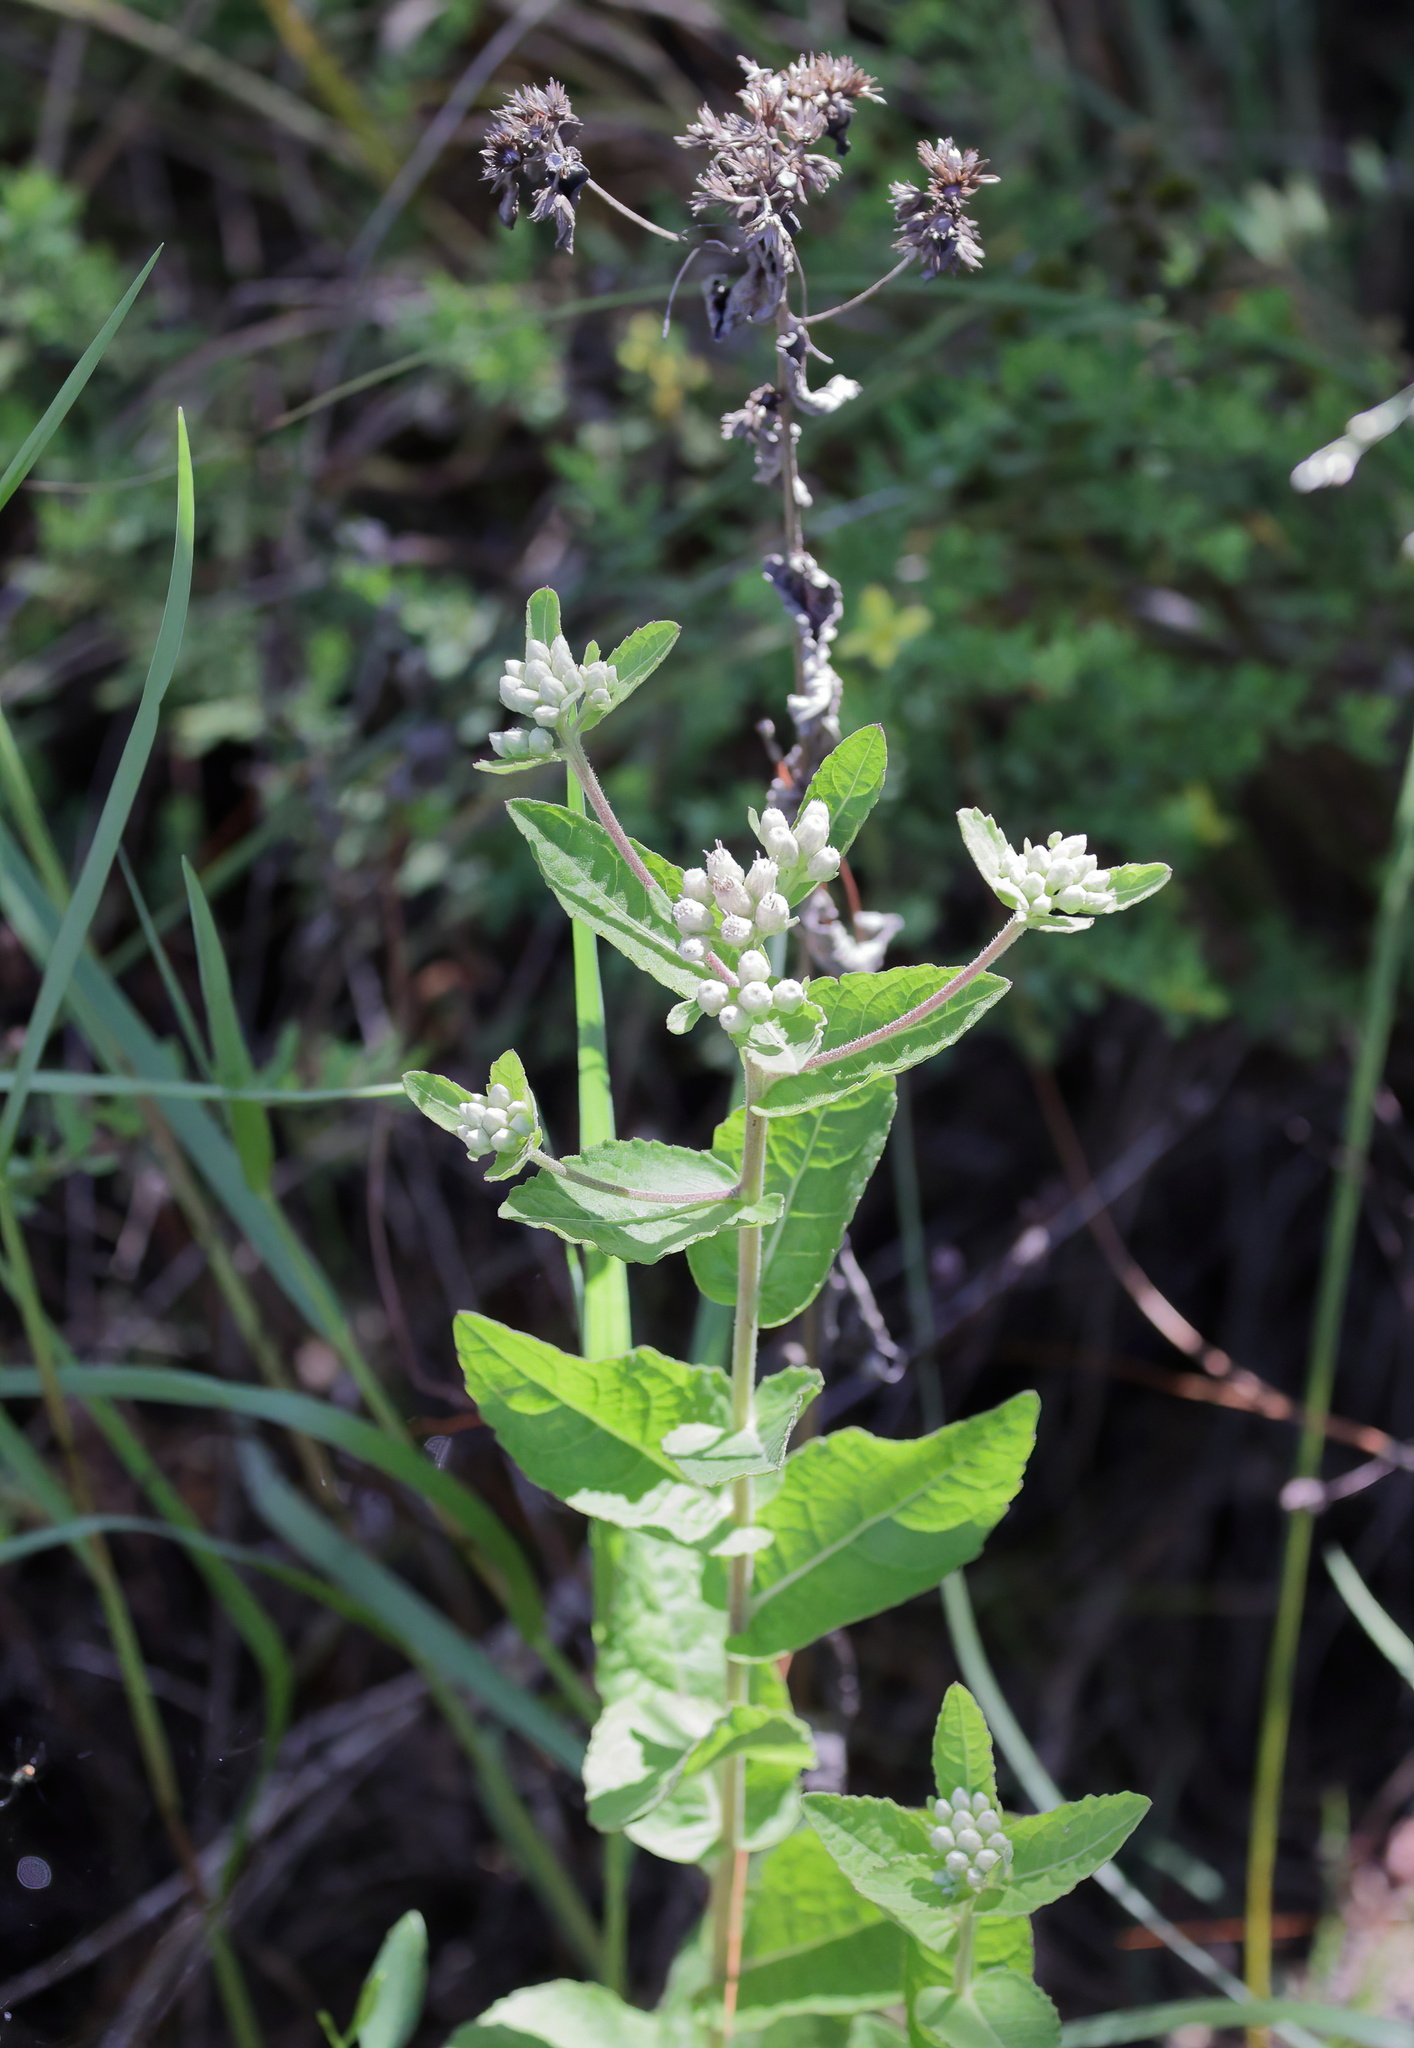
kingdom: Plantae
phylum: Tracheophyta
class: Magnoliopsida
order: Asterales
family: Asteraceae
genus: Pluchea
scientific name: Pluchea foetida
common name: Stinking camphorweed
